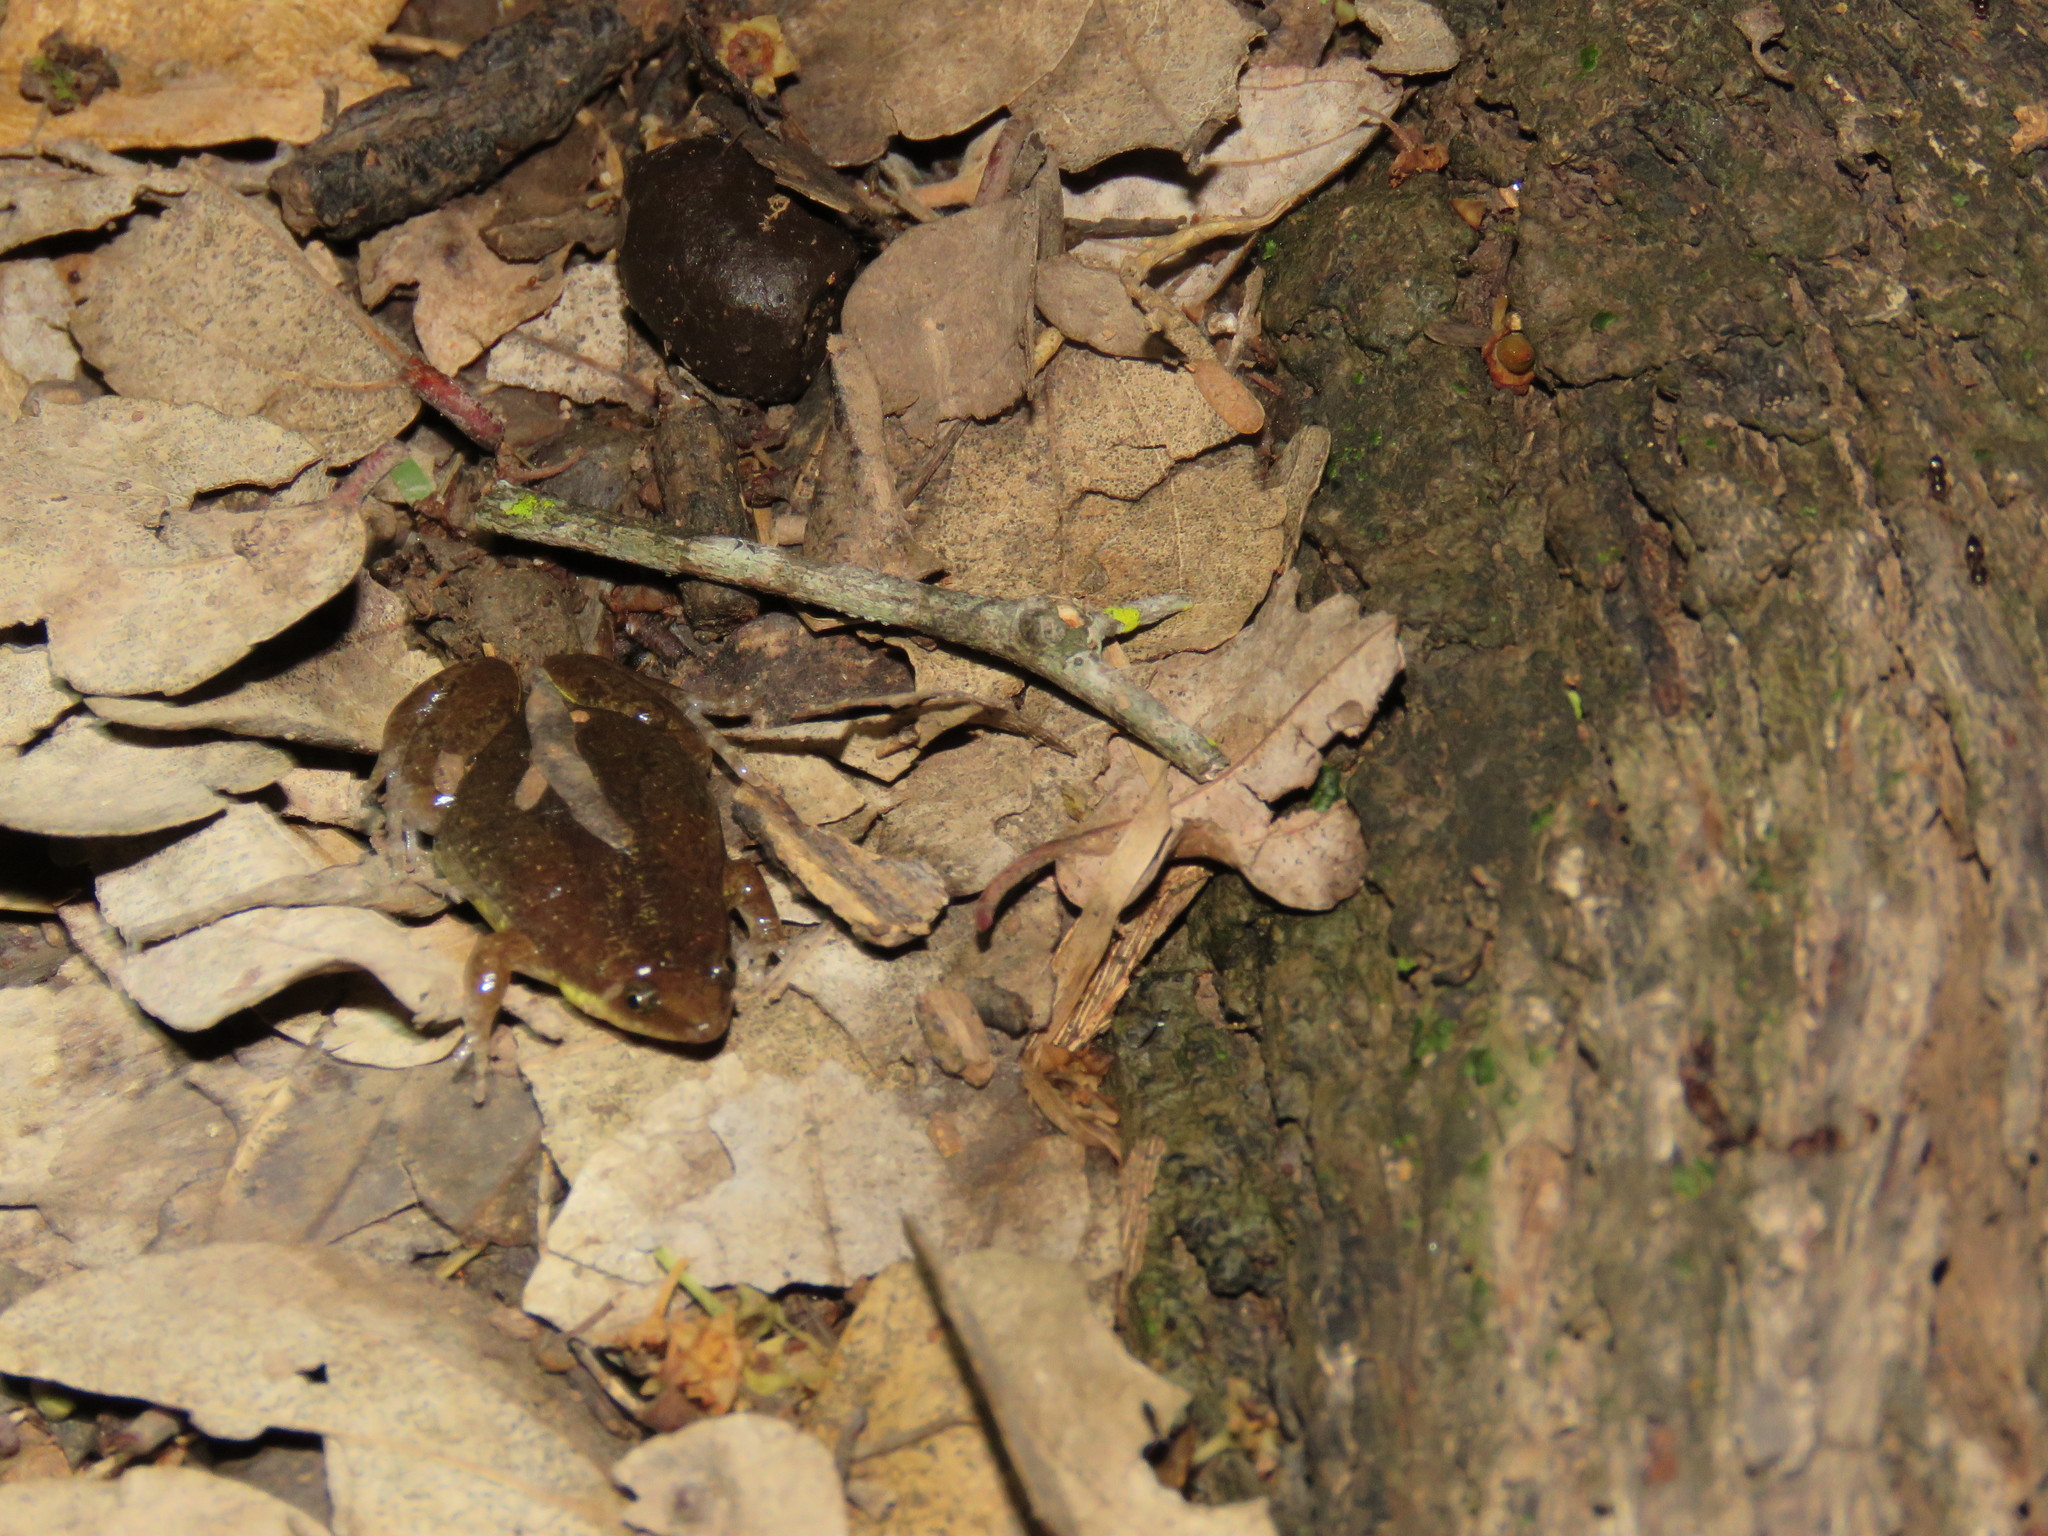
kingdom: Animalia
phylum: Chordata
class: Amphibia
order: Anura
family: Microhylidae
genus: Elachistocleis
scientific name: Elachistocleis haroi
